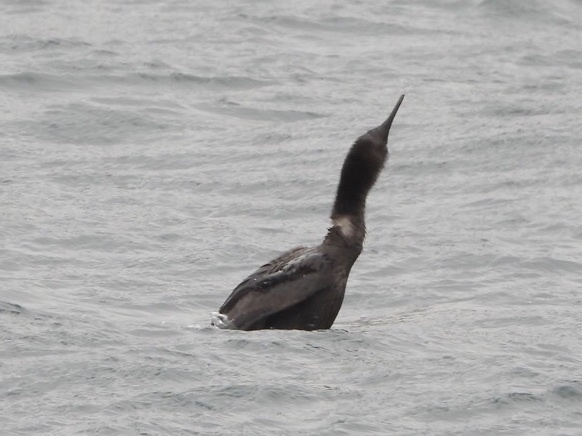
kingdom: Animalia
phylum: Chordata
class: Aves
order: Suliformes
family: Phalacrocoracidae
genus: Phalacrocorax
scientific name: Phalacrocorax pelagicus
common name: Pelagic cormorant
